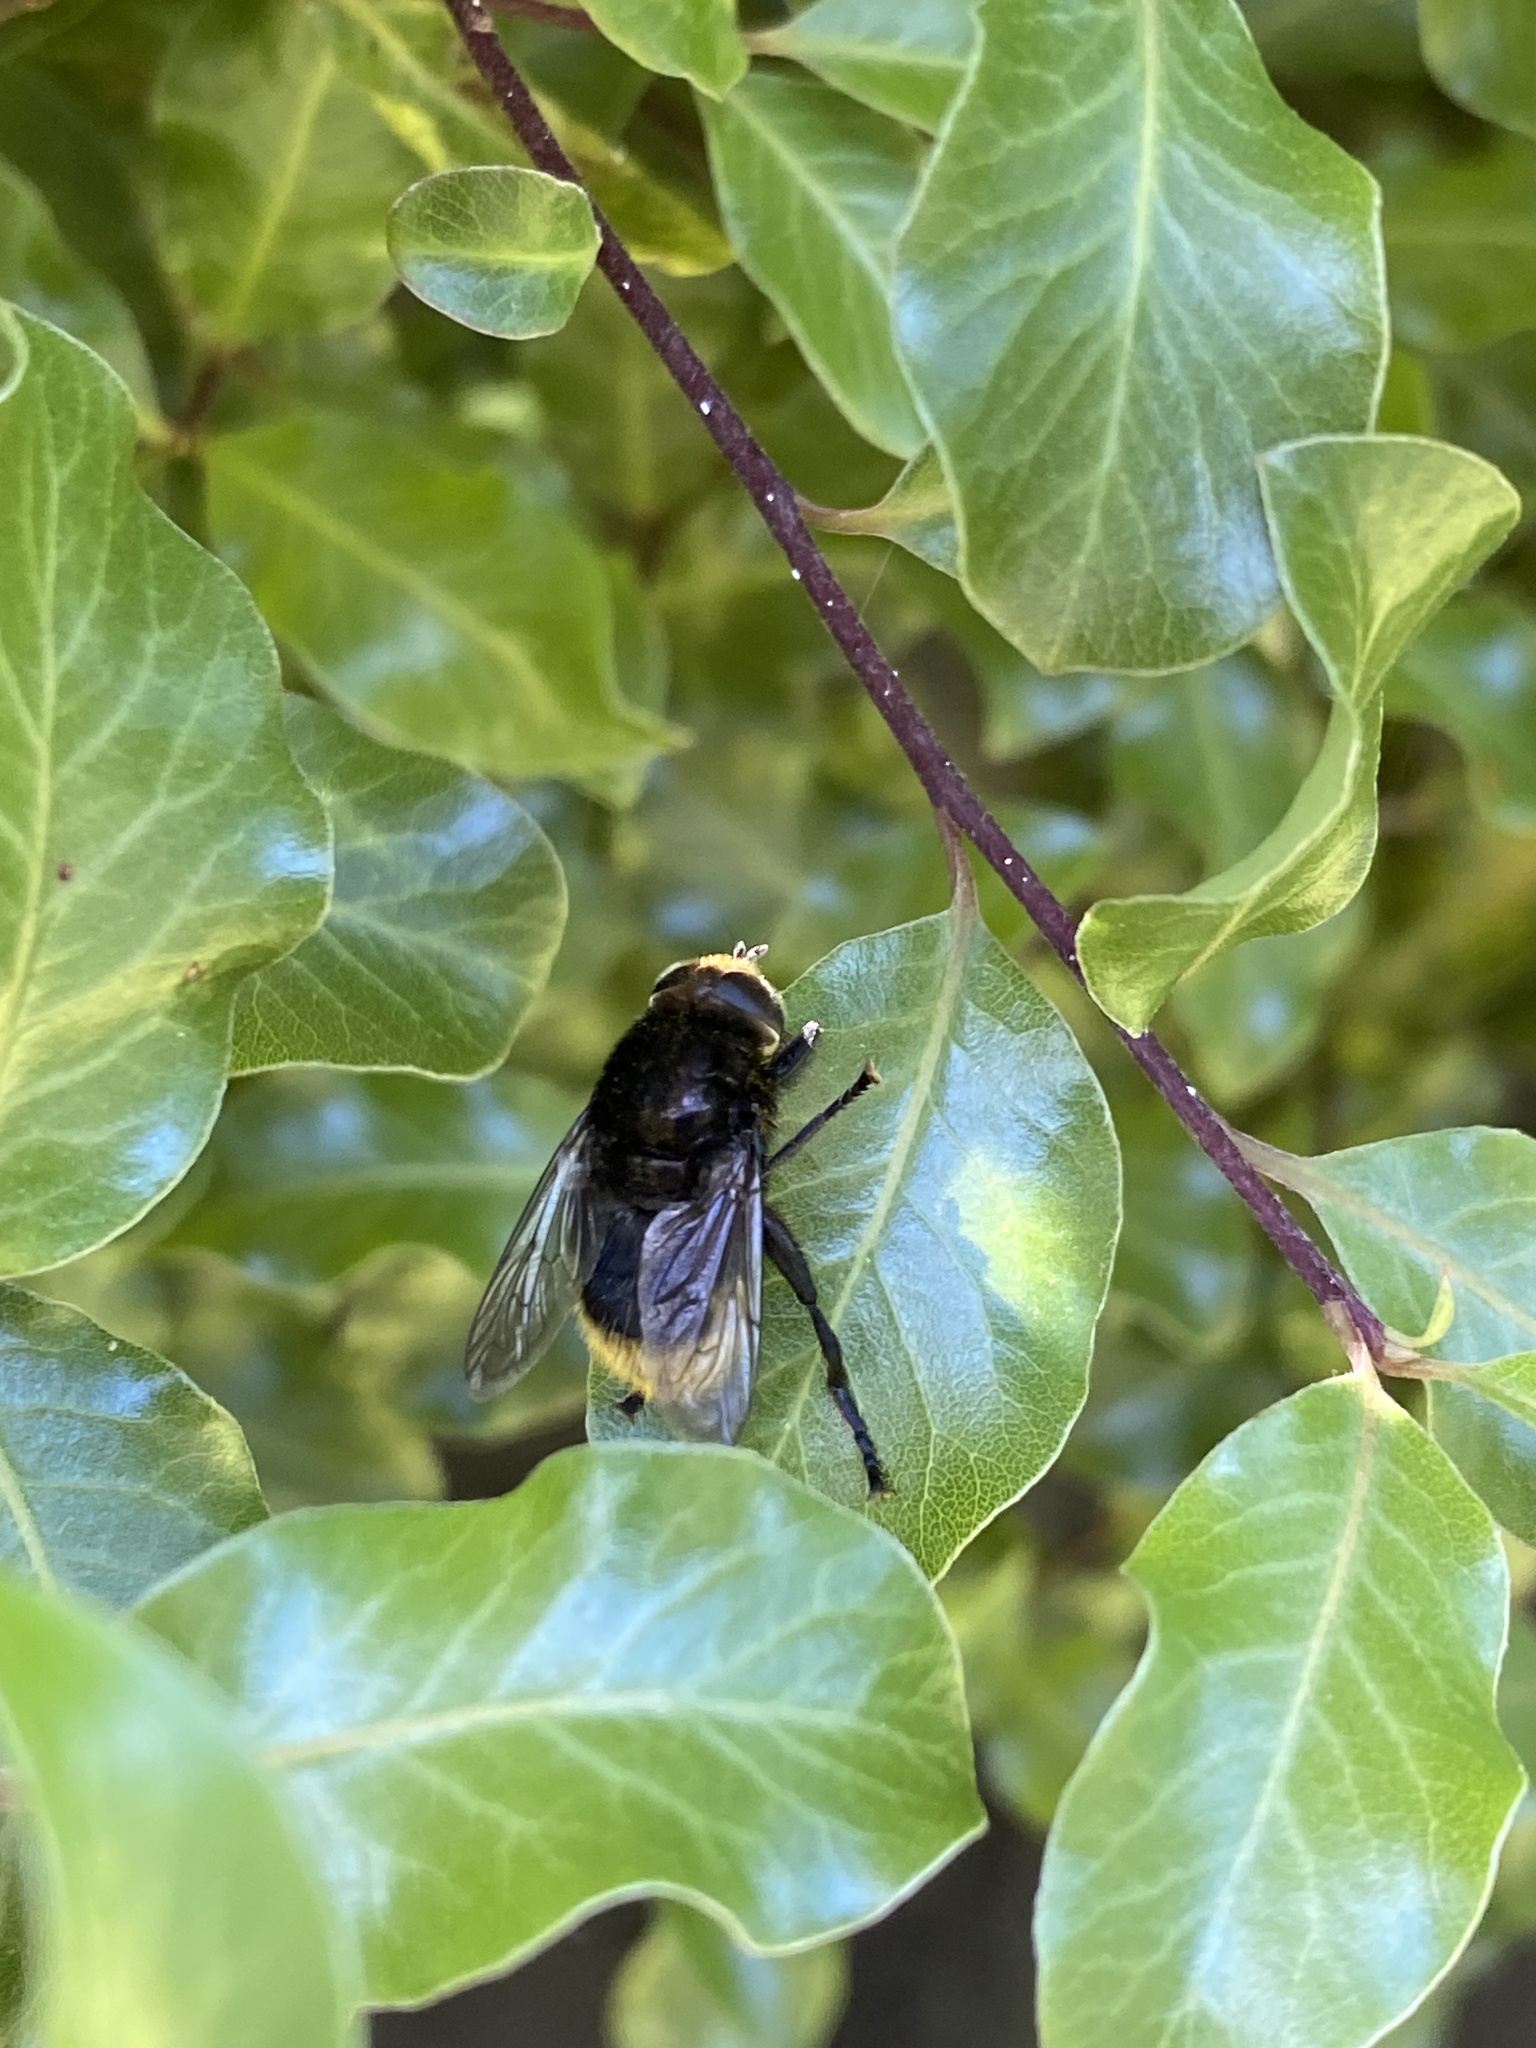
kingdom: Animalia
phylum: Arthropoda
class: Insecta
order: Diptera
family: Syrphidae
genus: Merodon
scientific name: Merodon equestris
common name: Greater bulb-fly
